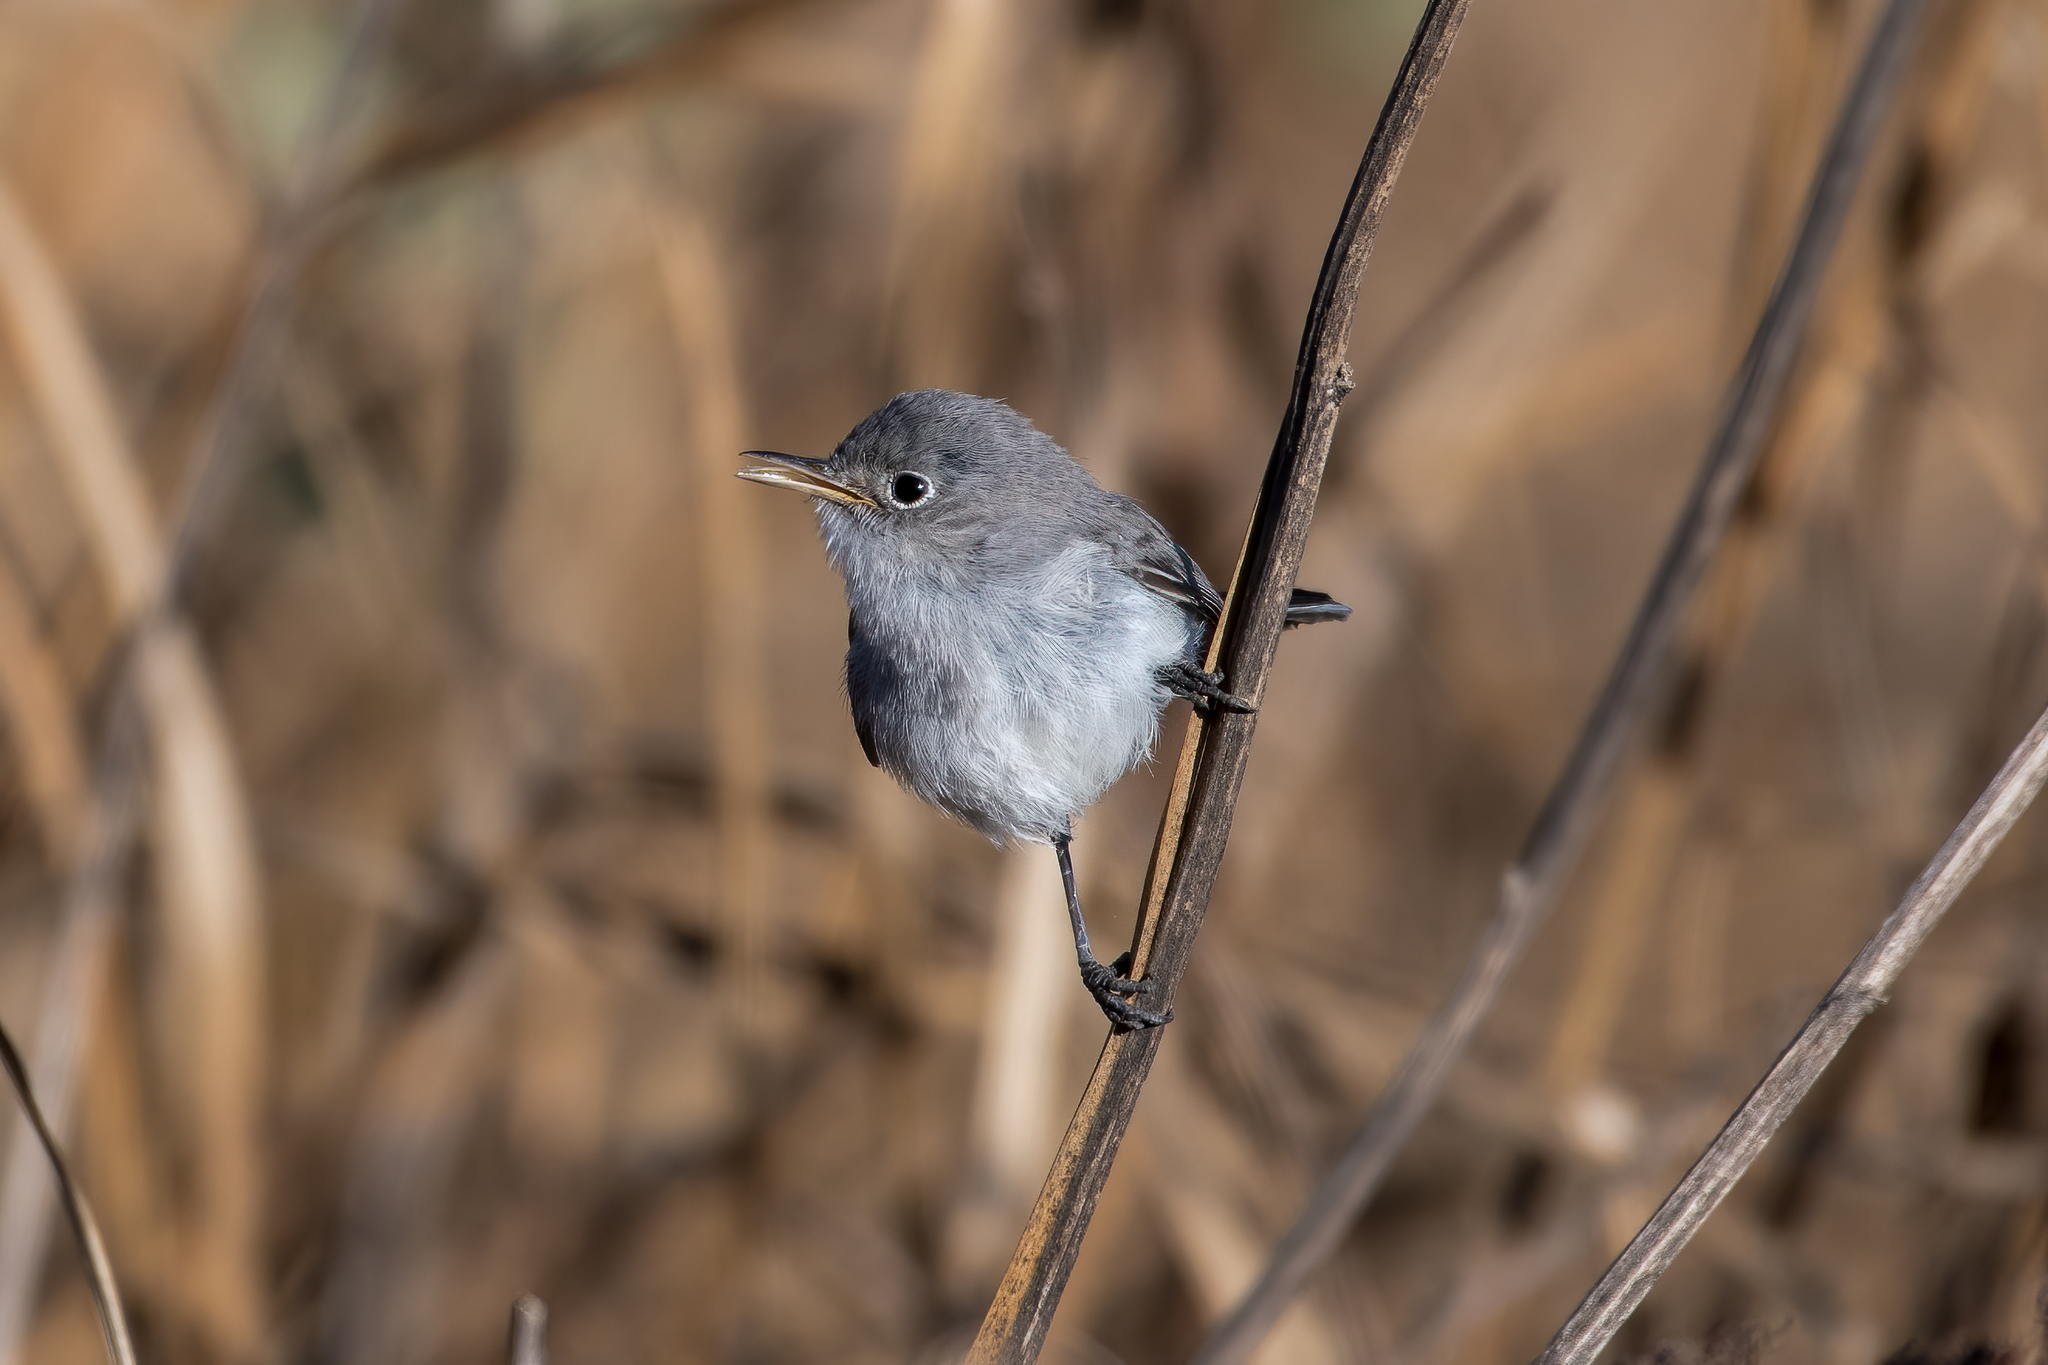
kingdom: Animalia
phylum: Chordata
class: Aves
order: Passeriformes
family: Polioptilidae
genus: Polioptila
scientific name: Polioptila caerulea
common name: Blue-gray gnatcatcher
